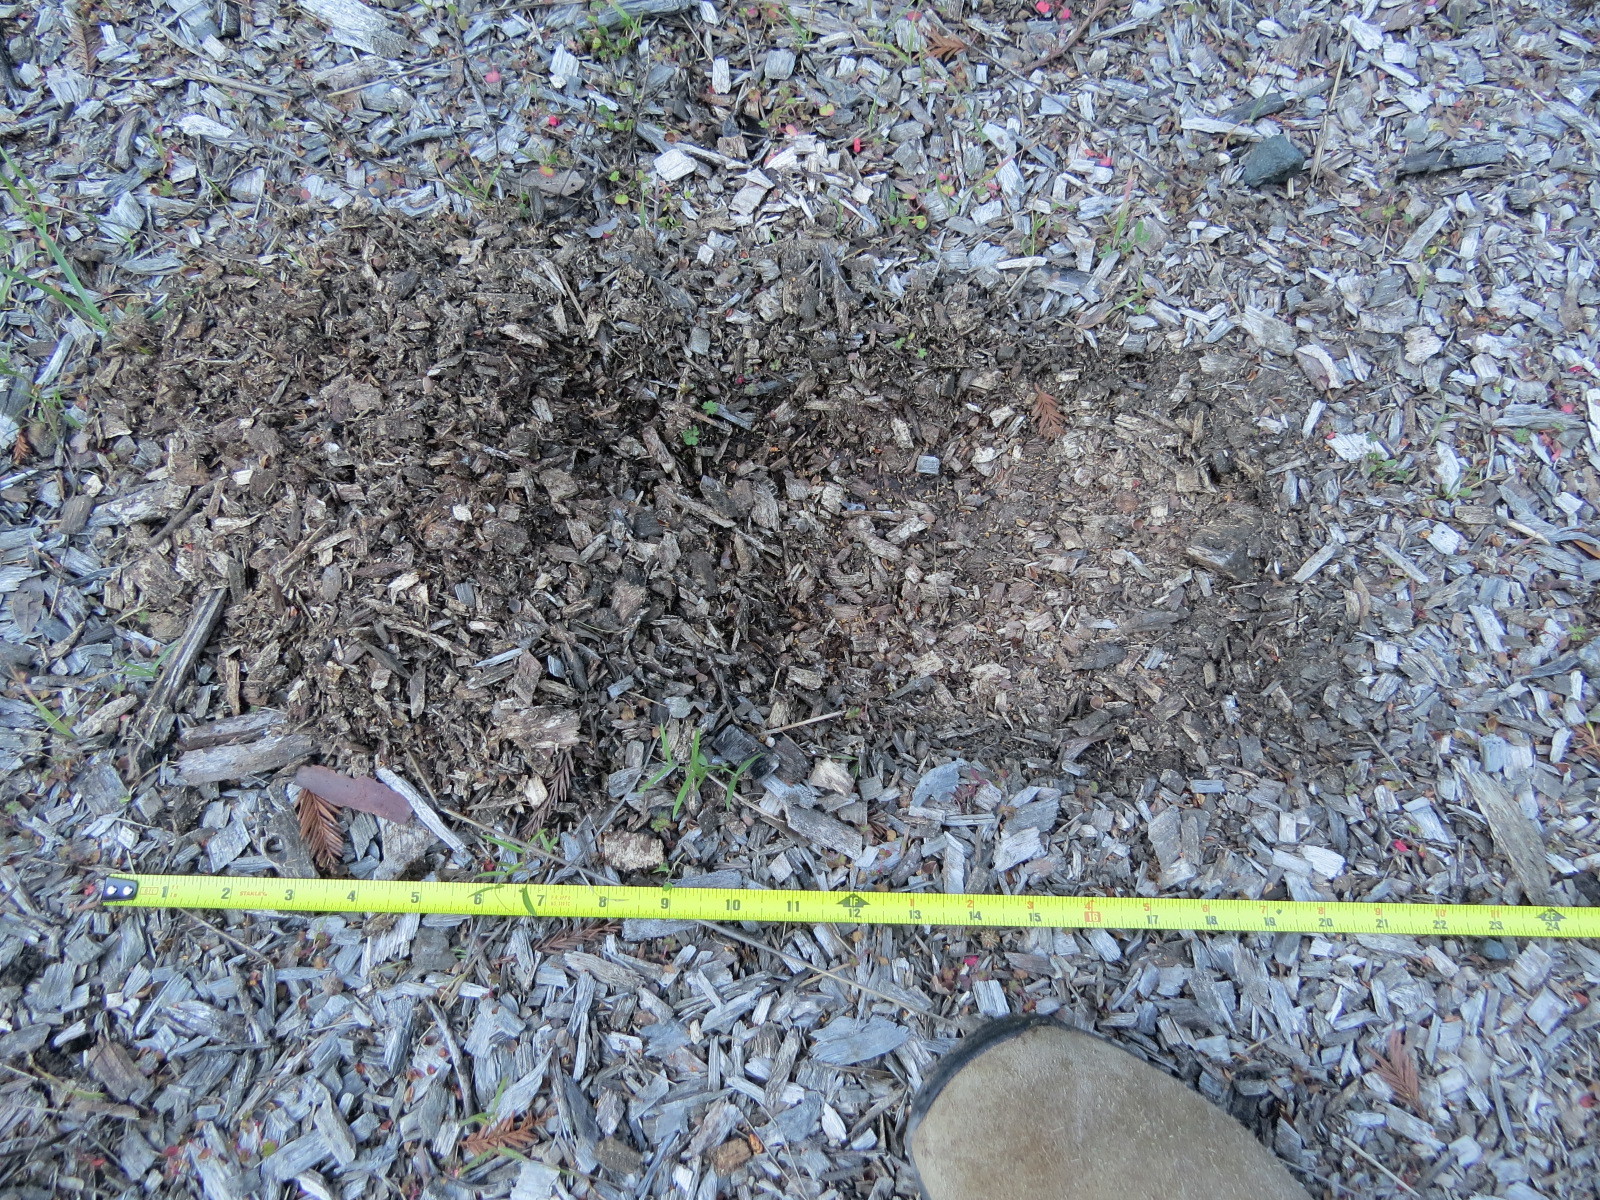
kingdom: Animalia
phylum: Chordata
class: Mammalia
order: Carnivora
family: Felidae
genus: Puma
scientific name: Puma concolor
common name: Puma
